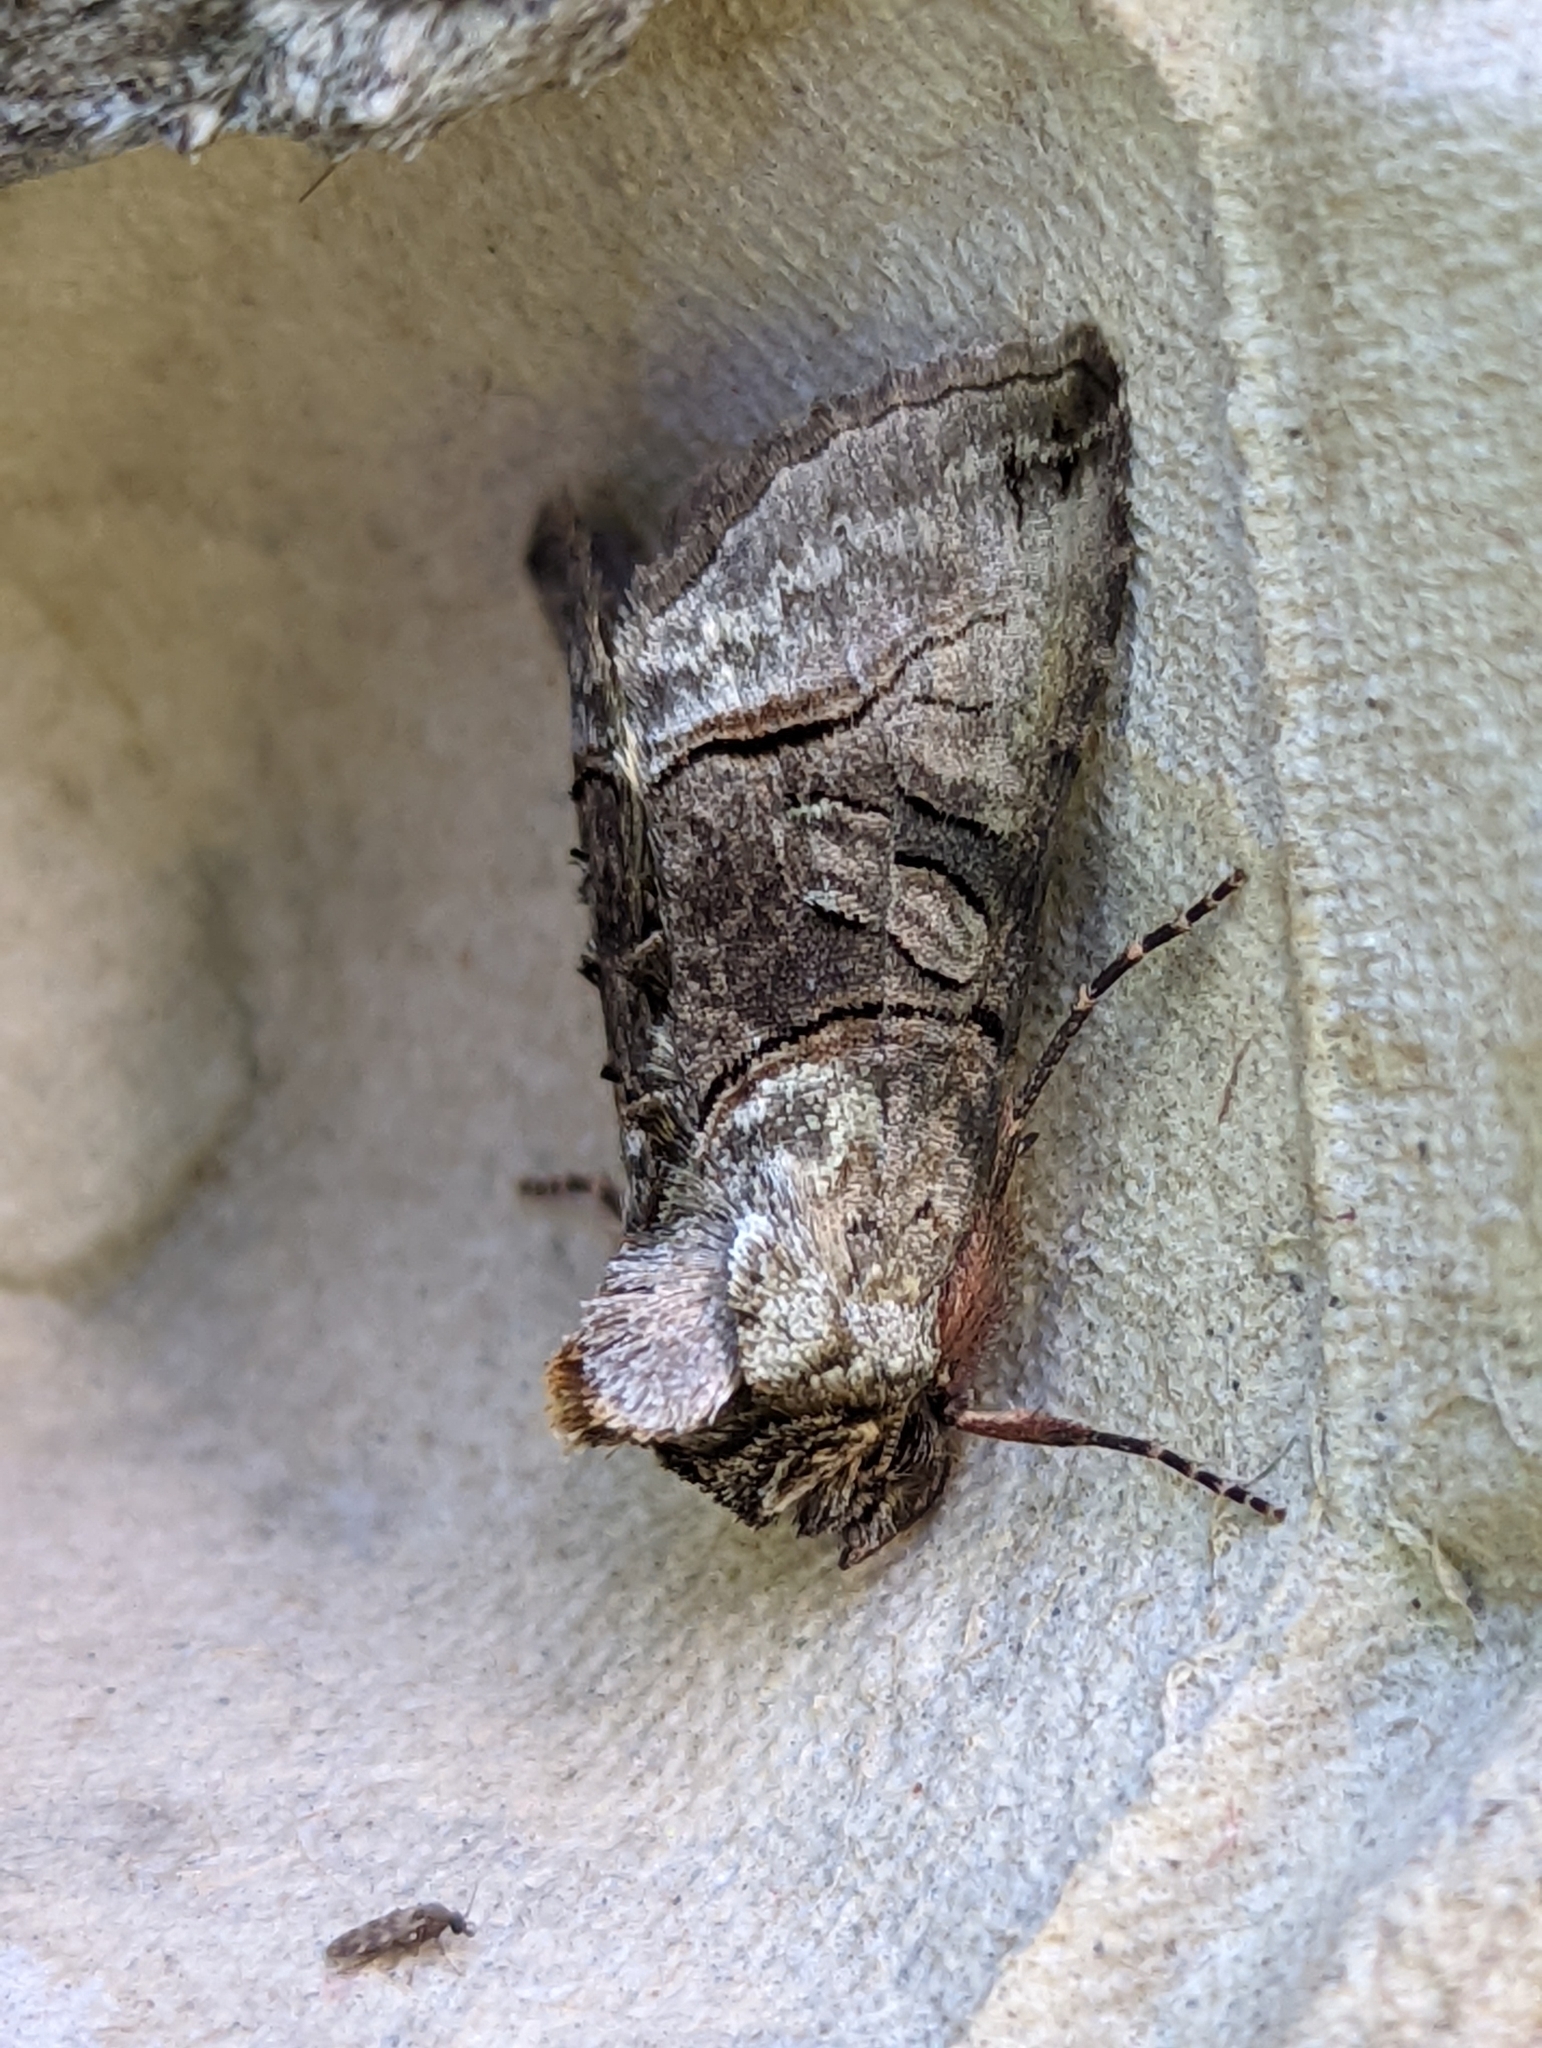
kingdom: Animalia
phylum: Arthropoda
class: Insecta
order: Lepidoptera
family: Noctuidae
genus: Abrostola
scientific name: Abrostola tripartita
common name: Spectacle
